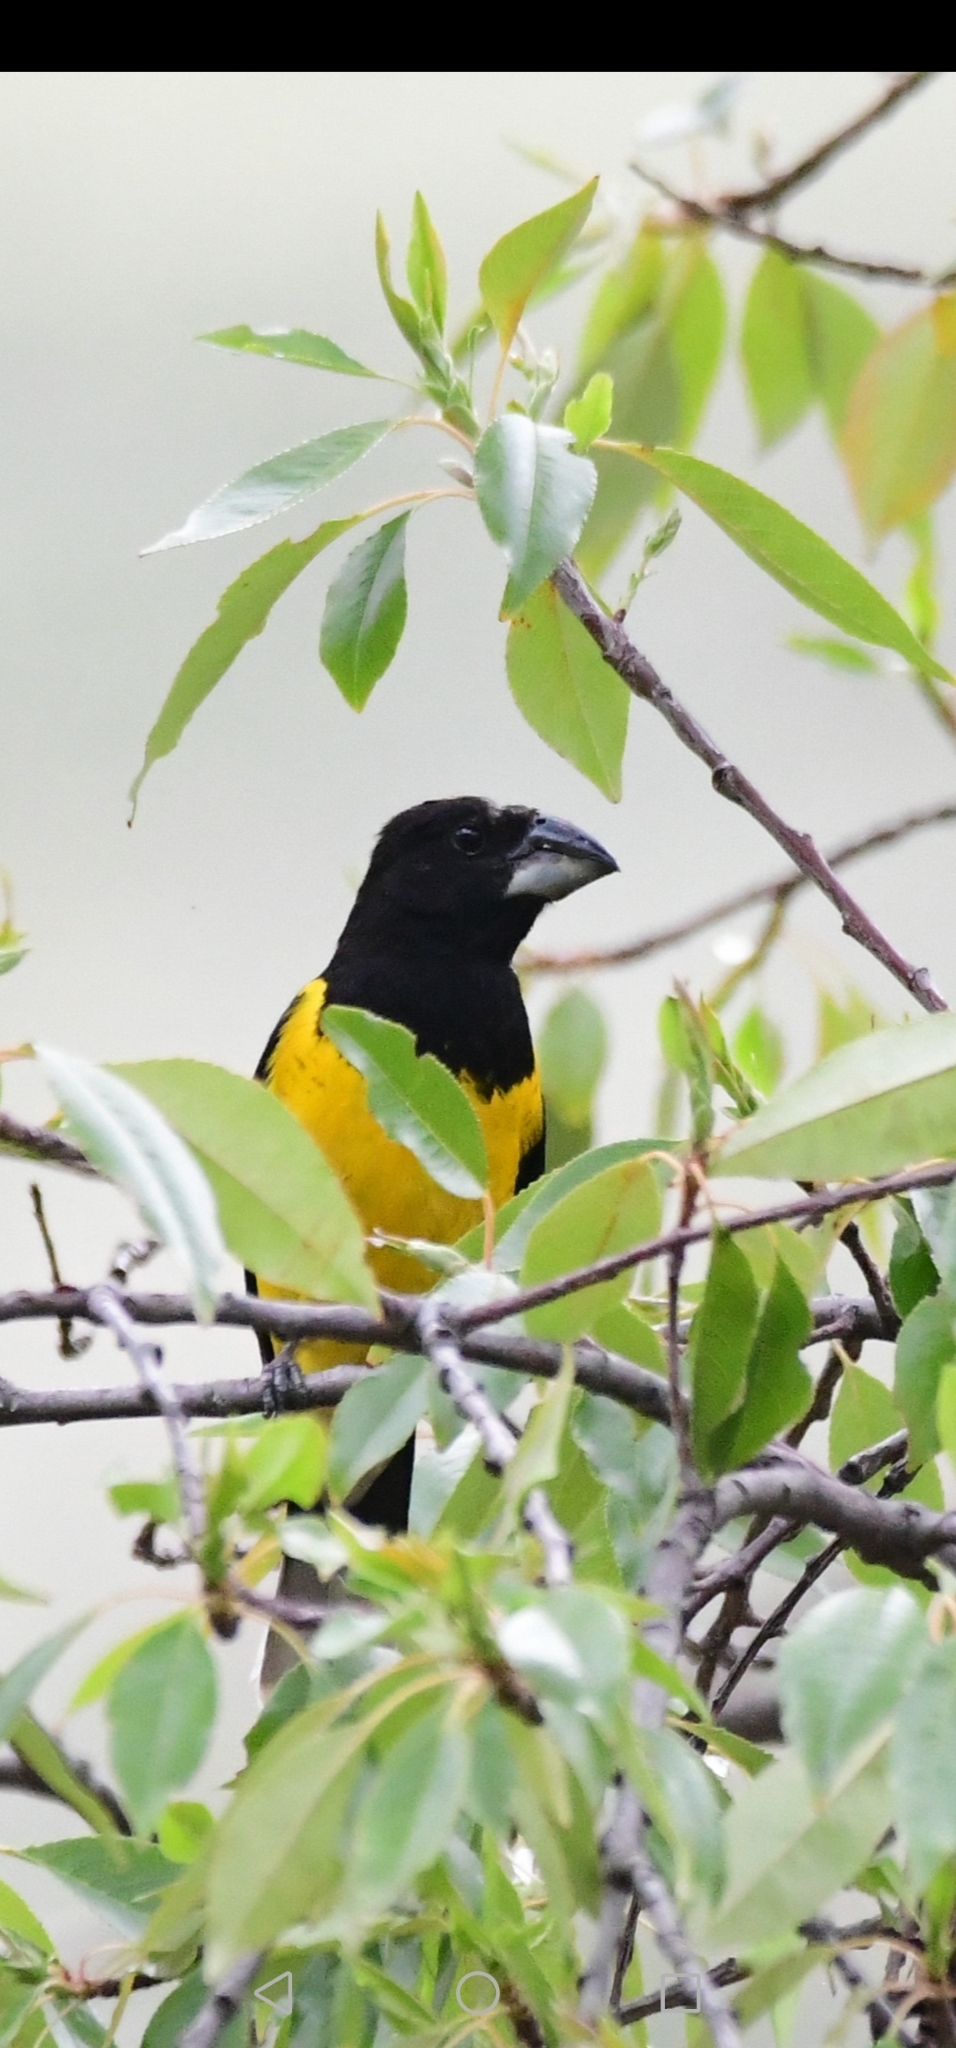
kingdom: Animalia
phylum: Chordata
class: Aves
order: Passeriformes
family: Cardinalidae
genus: Pheucticus
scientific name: Pheucticus aureoventris
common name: Black-backed grosbeak
